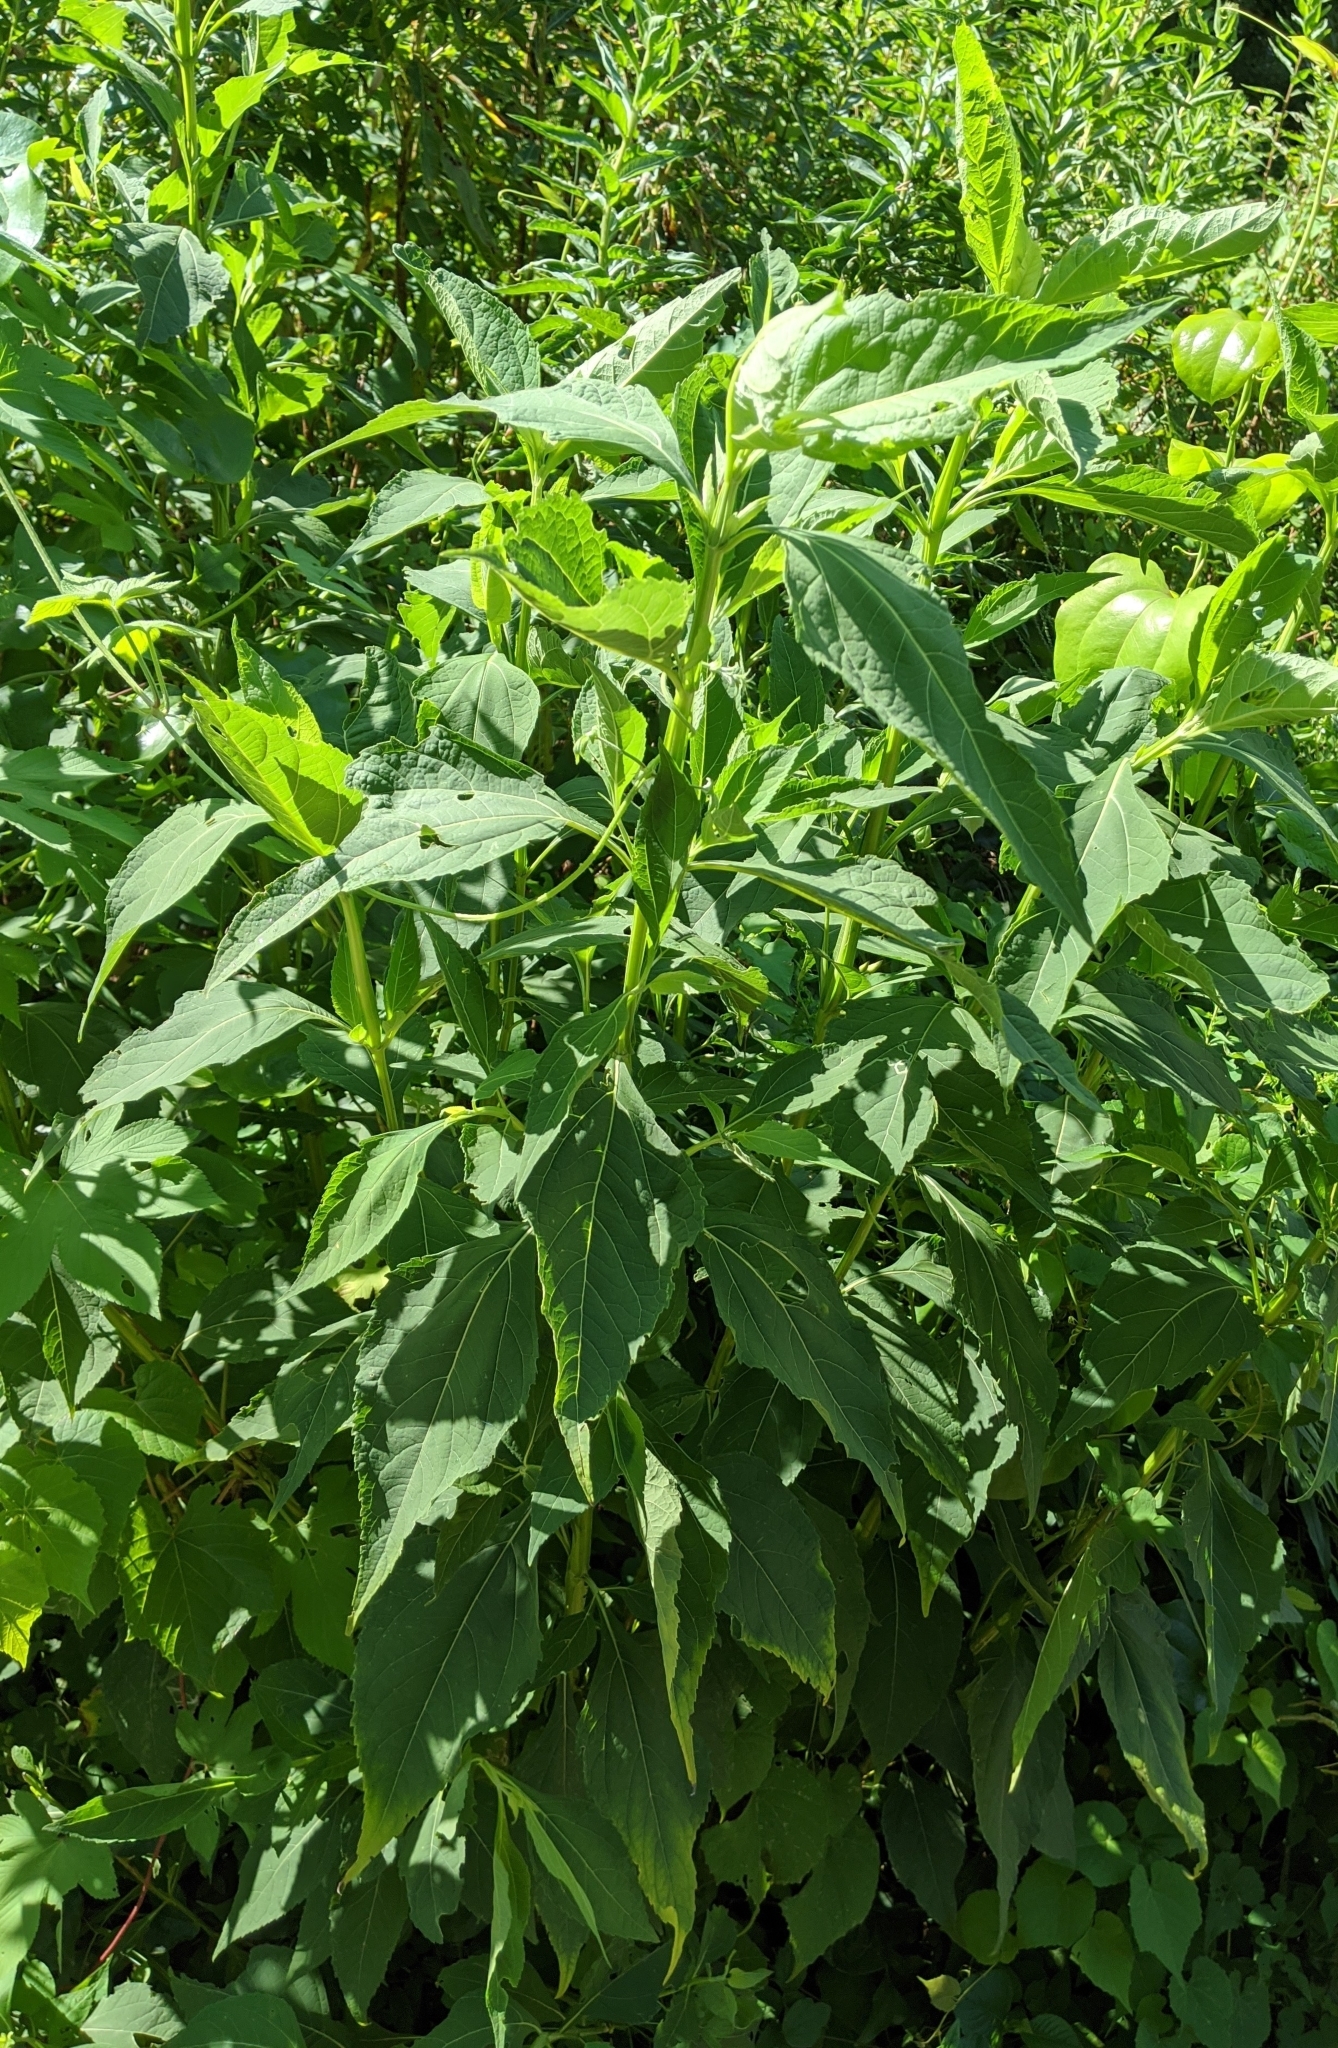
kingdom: Plantae
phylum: Tracheophyta
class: Magnoliopsida
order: Asterales
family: Asteraceae
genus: Verbesina
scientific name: Verbesina occidentalis
